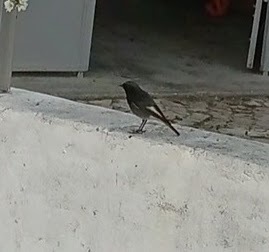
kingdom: Animalia
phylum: Chordata
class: Aves
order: Passeriformes
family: Muscicapidae
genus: Phoenicurus
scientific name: Phoenicurus ochruros
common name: Black redstart
